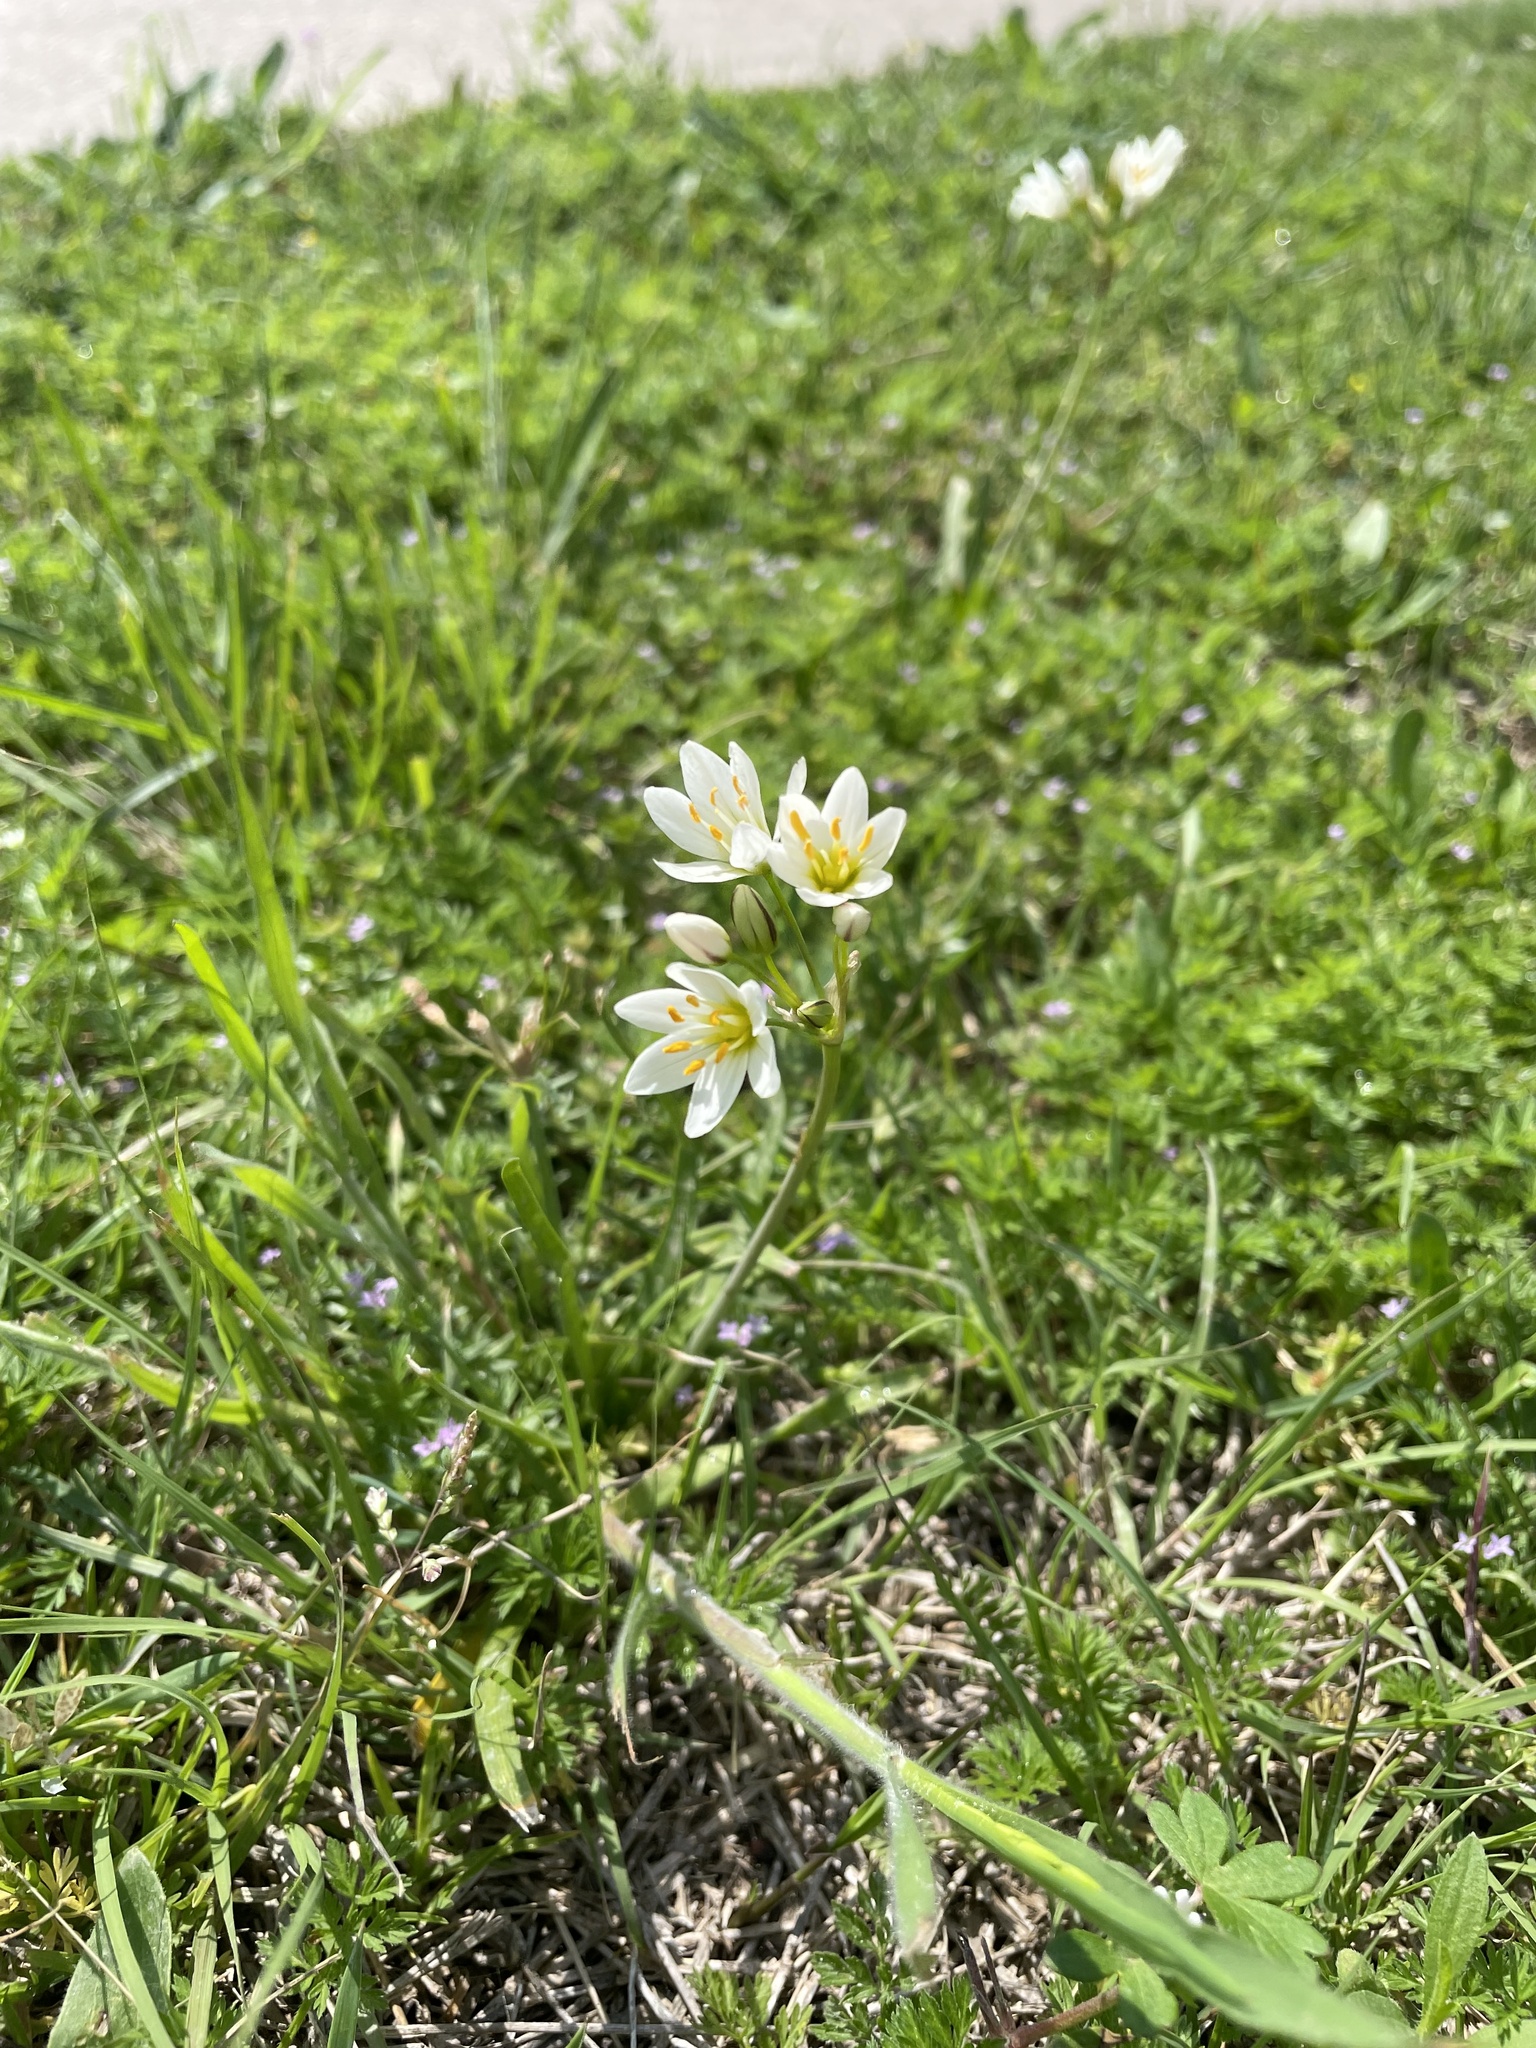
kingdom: Plantae
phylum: Tracheophyta
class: Liliopsida
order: Asparagales
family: Amaryllidaceae
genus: Nothoscordum
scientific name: Nothoscordum bivalve
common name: Crow-poison
